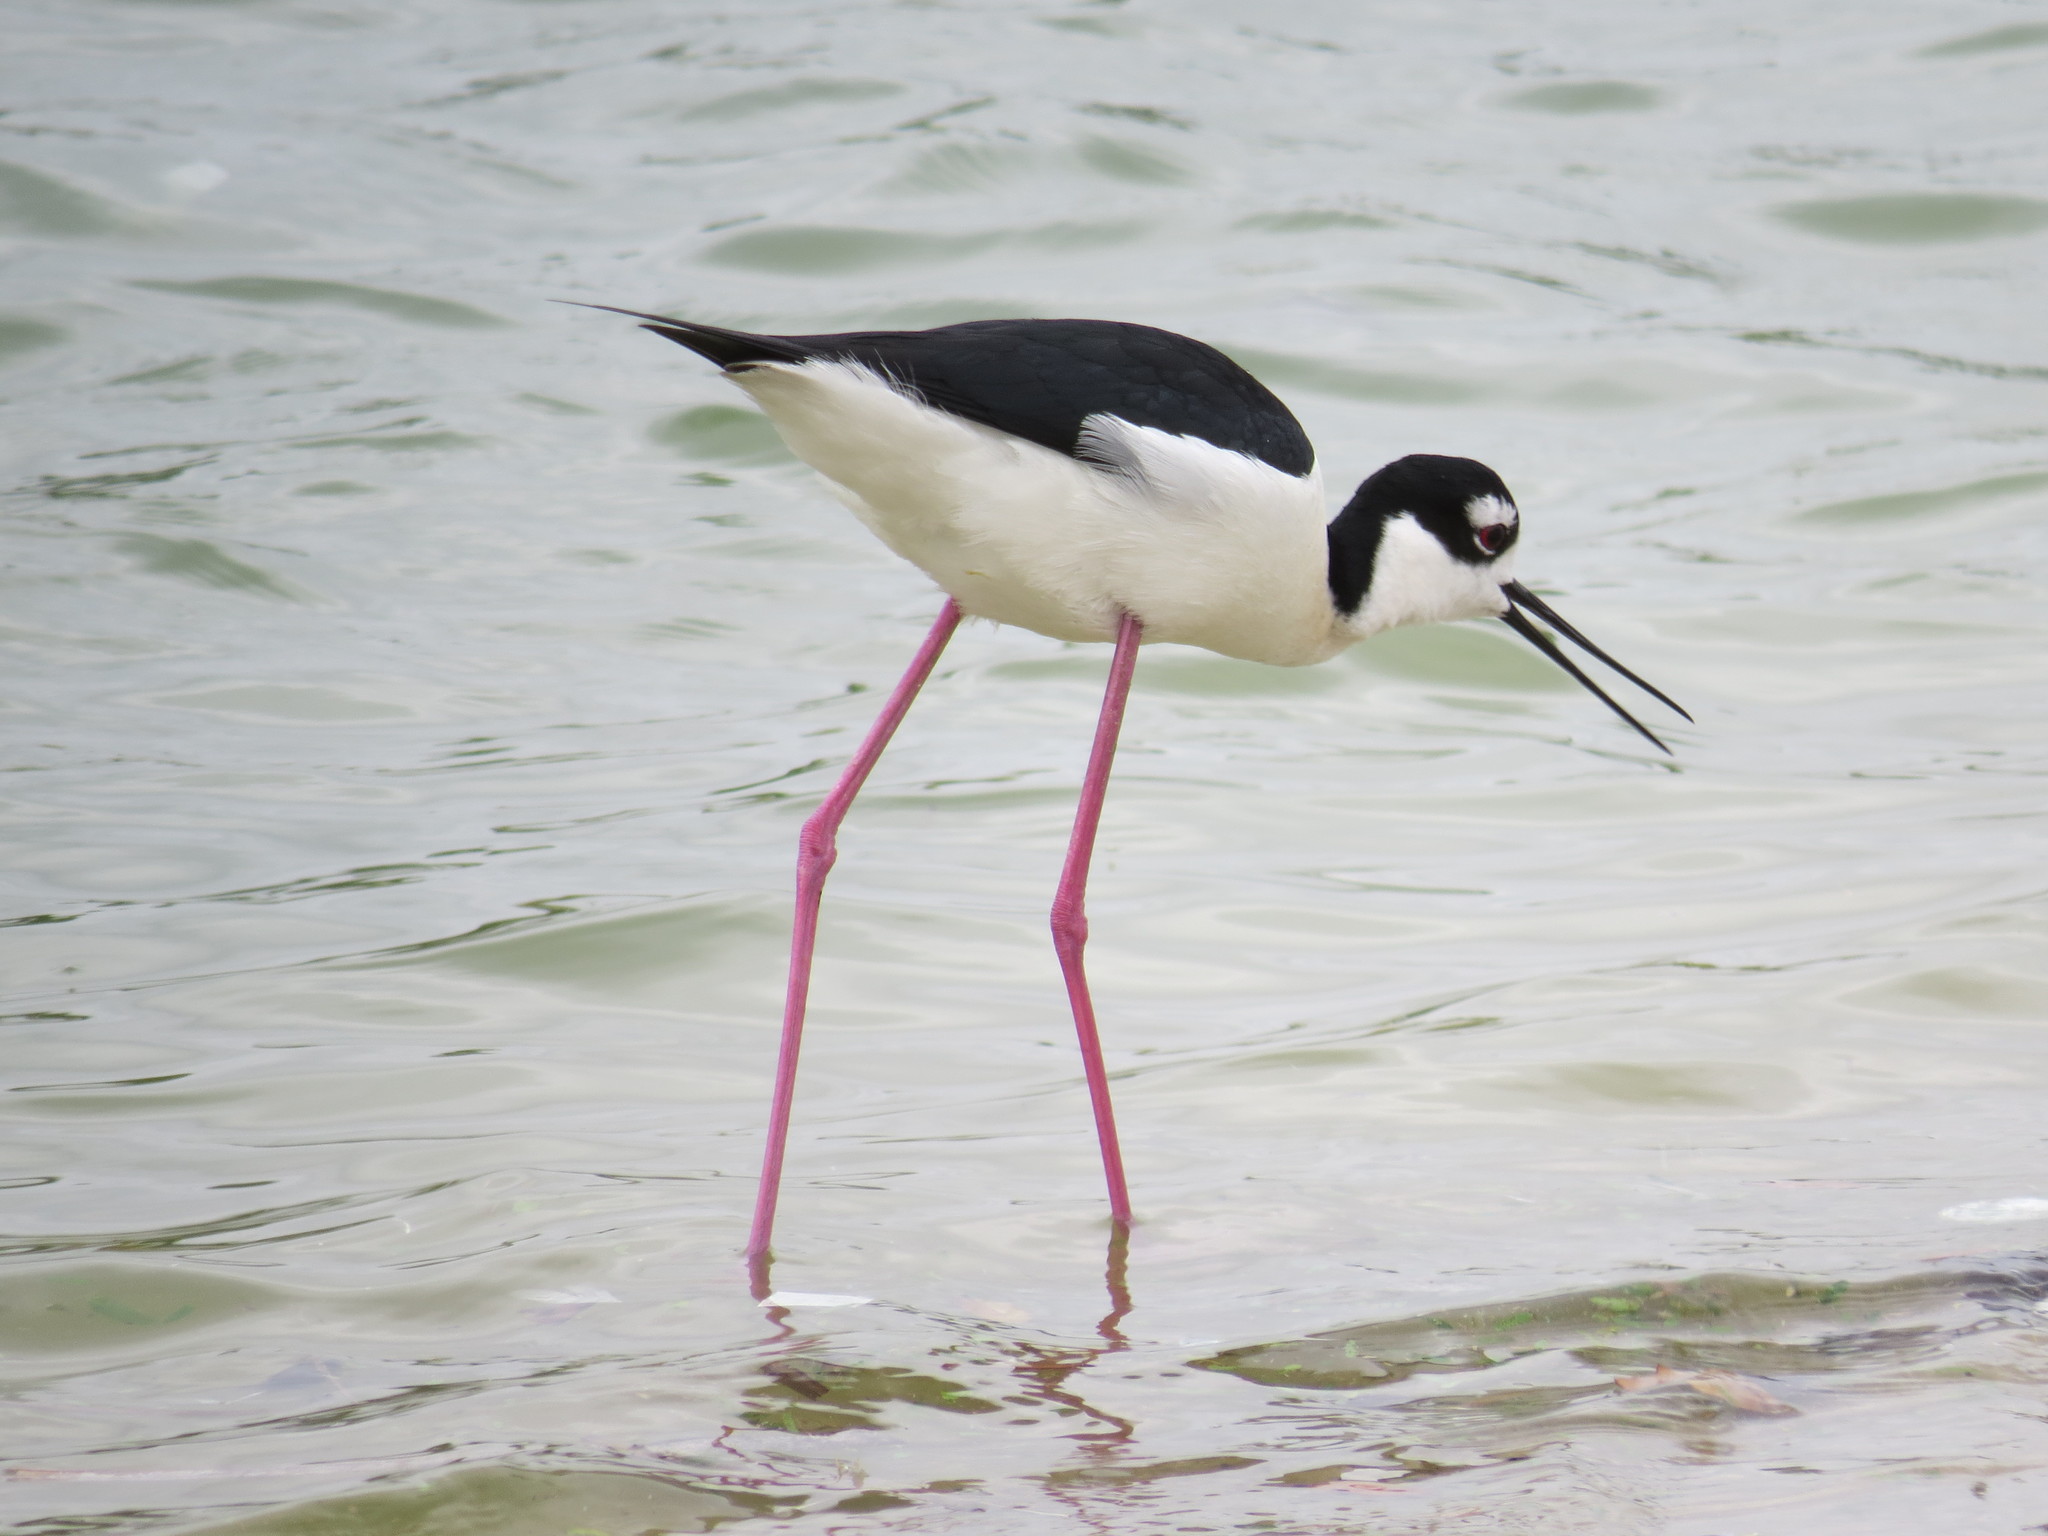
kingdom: Animalia
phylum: Chordata
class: Aves
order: Charadriiformes
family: Recurvirostridae
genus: Himantopus
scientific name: Himantopus mexicanus
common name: Black-necked stilt
